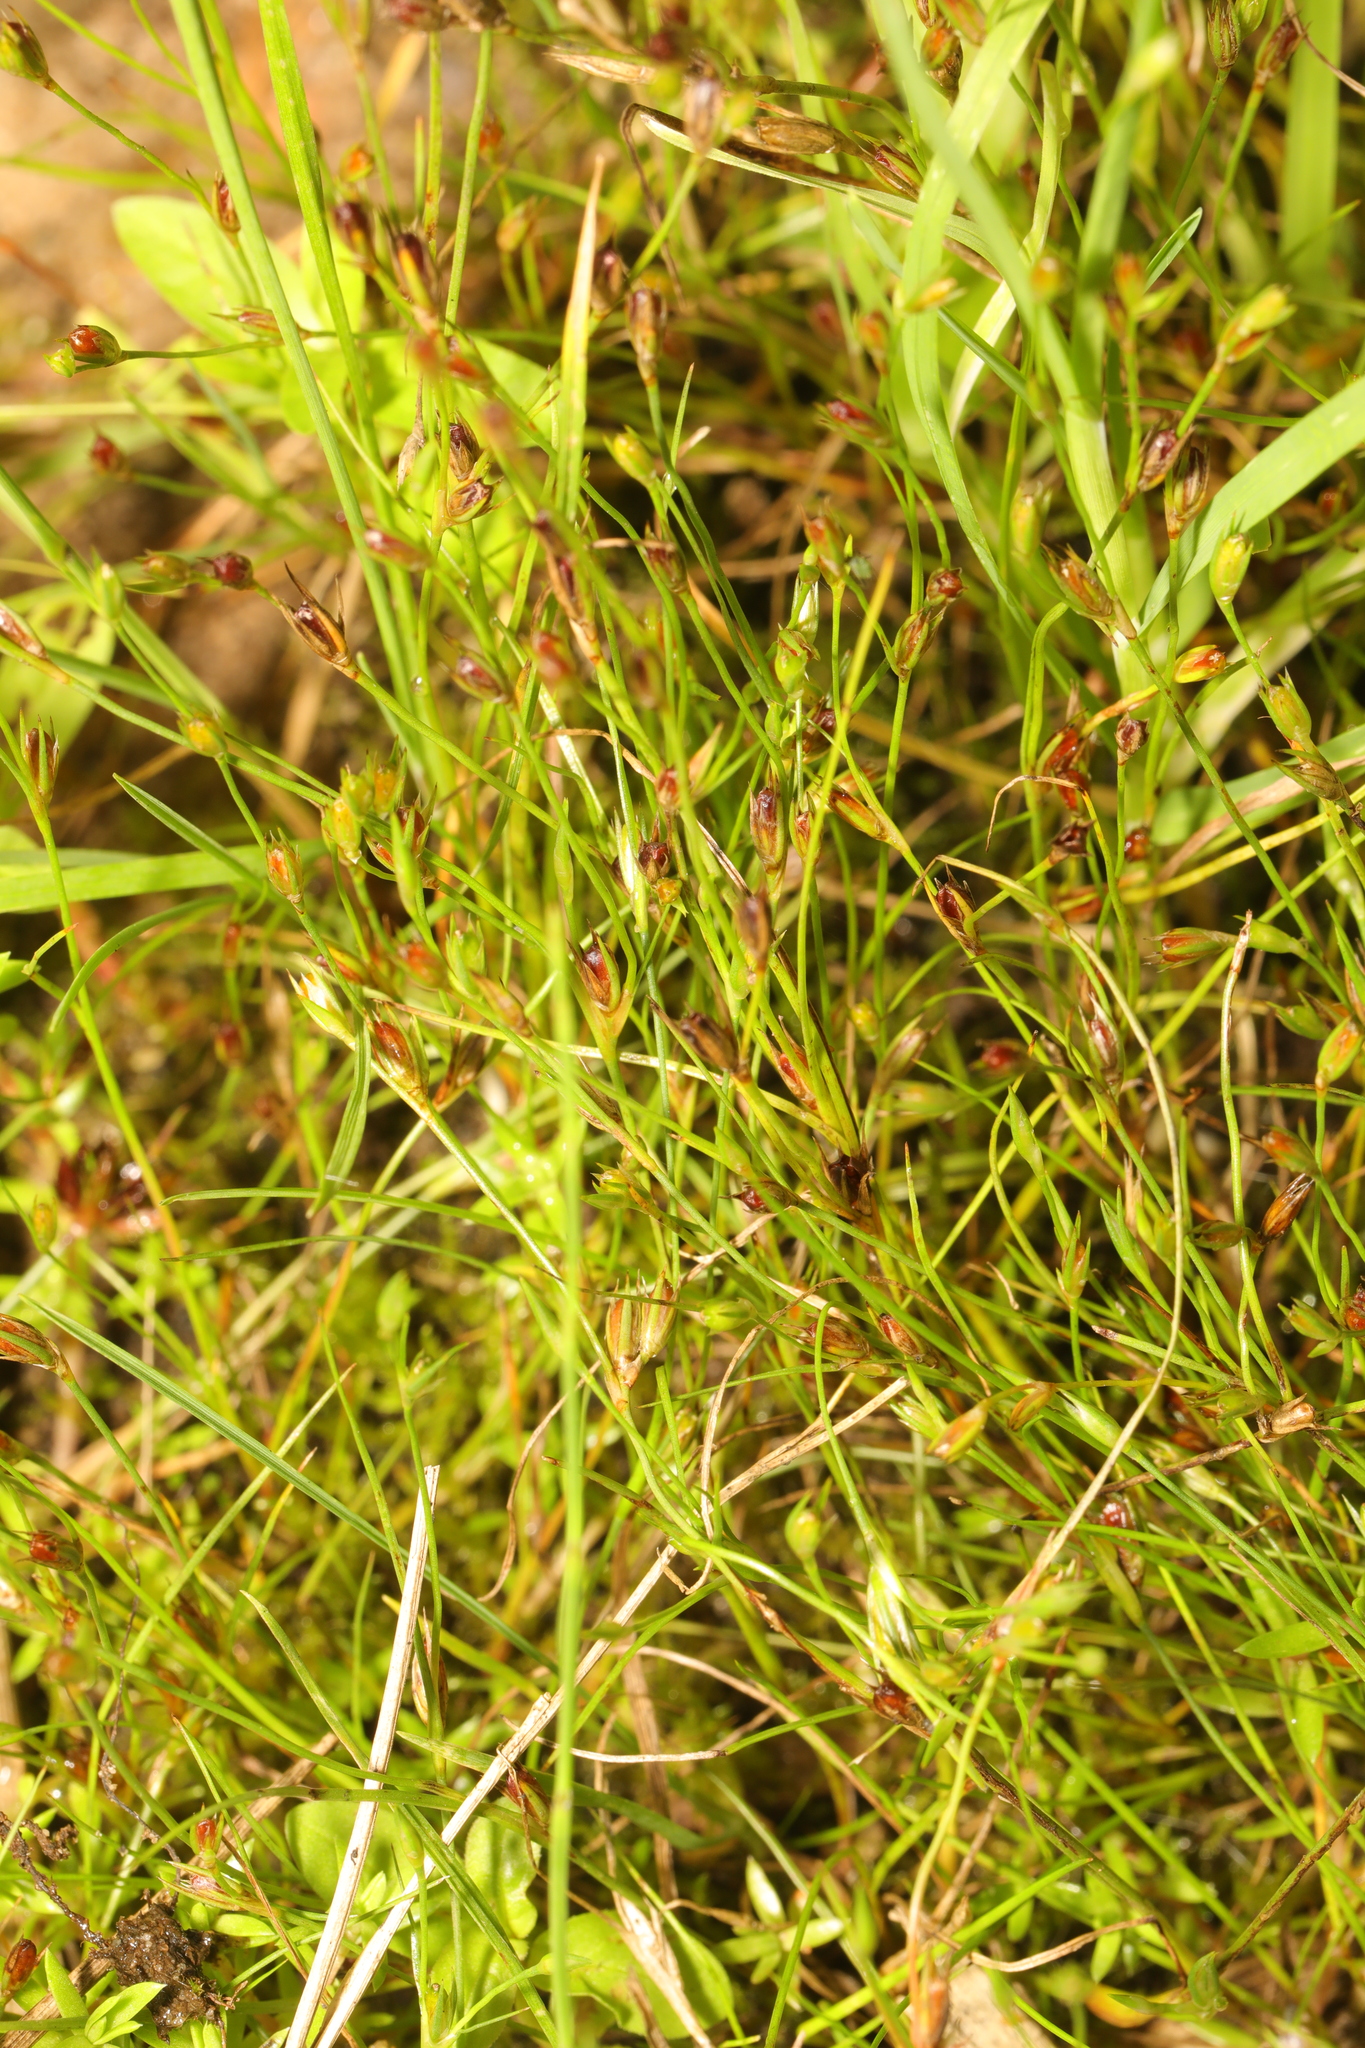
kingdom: Plantae
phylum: Tracheophyta
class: Liliopsida
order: Poales
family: Juncaceae
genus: Juncus
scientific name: Juncus bufonius
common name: Toad rush
